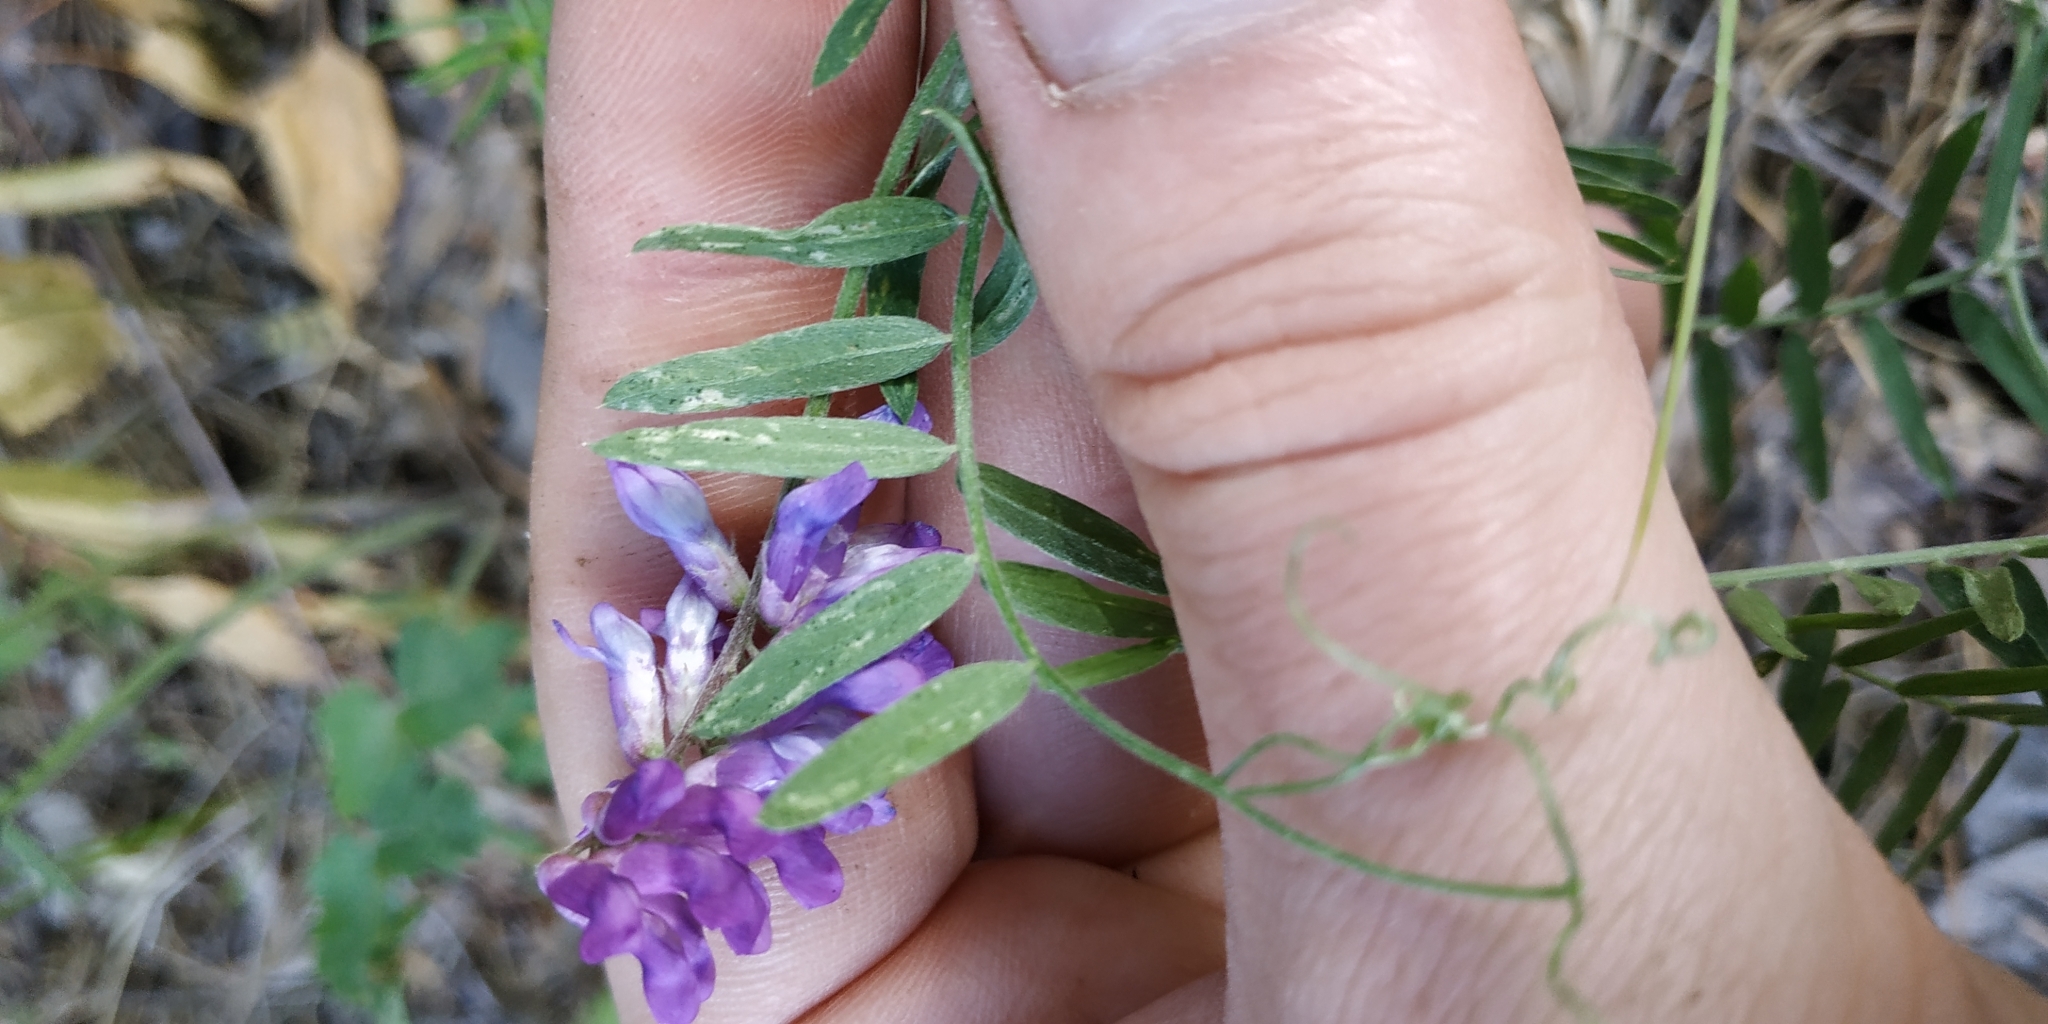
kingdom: Plantae
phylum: Tracheophyta
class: Magnoliopsida
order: Fabales
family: Fabaceae
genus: Vicia
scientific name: Vicia cracca
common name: Bird vetch
